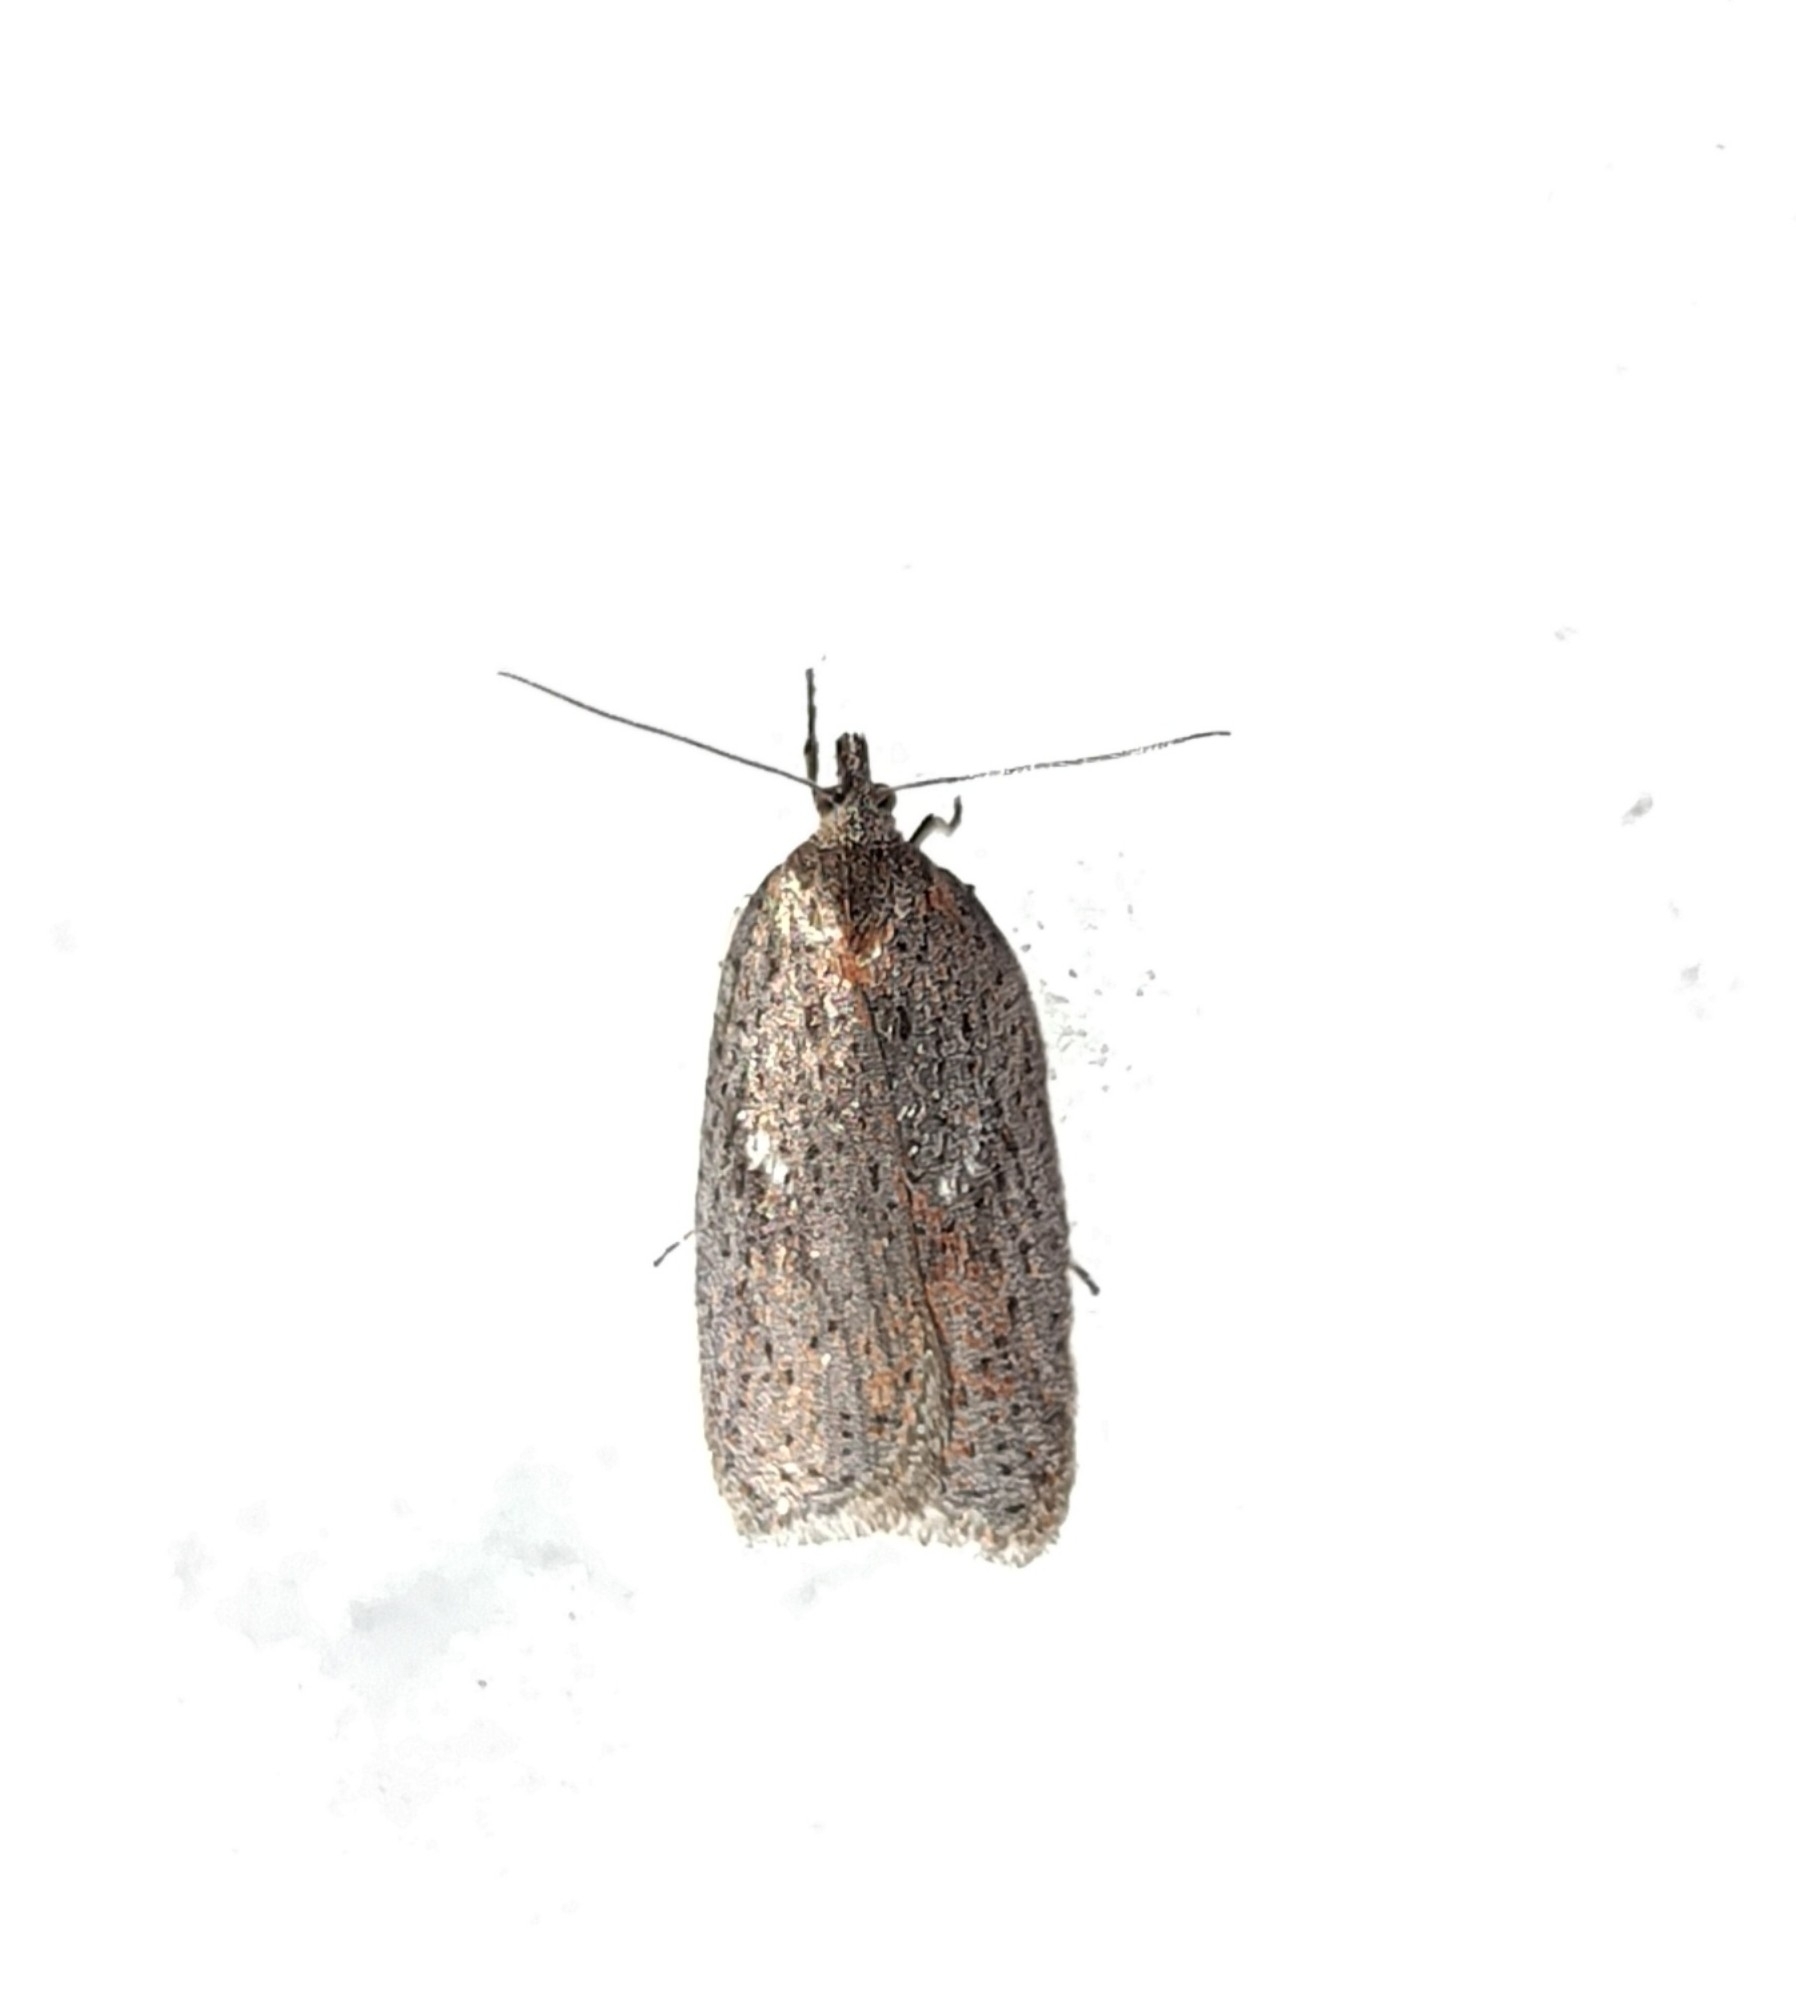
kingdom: Animalia
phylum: Arthropoda
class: Insecta
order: Lepidoptera
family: Tortricidae
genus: Acleris
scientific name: Acleris lipsiana
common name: Northern button
